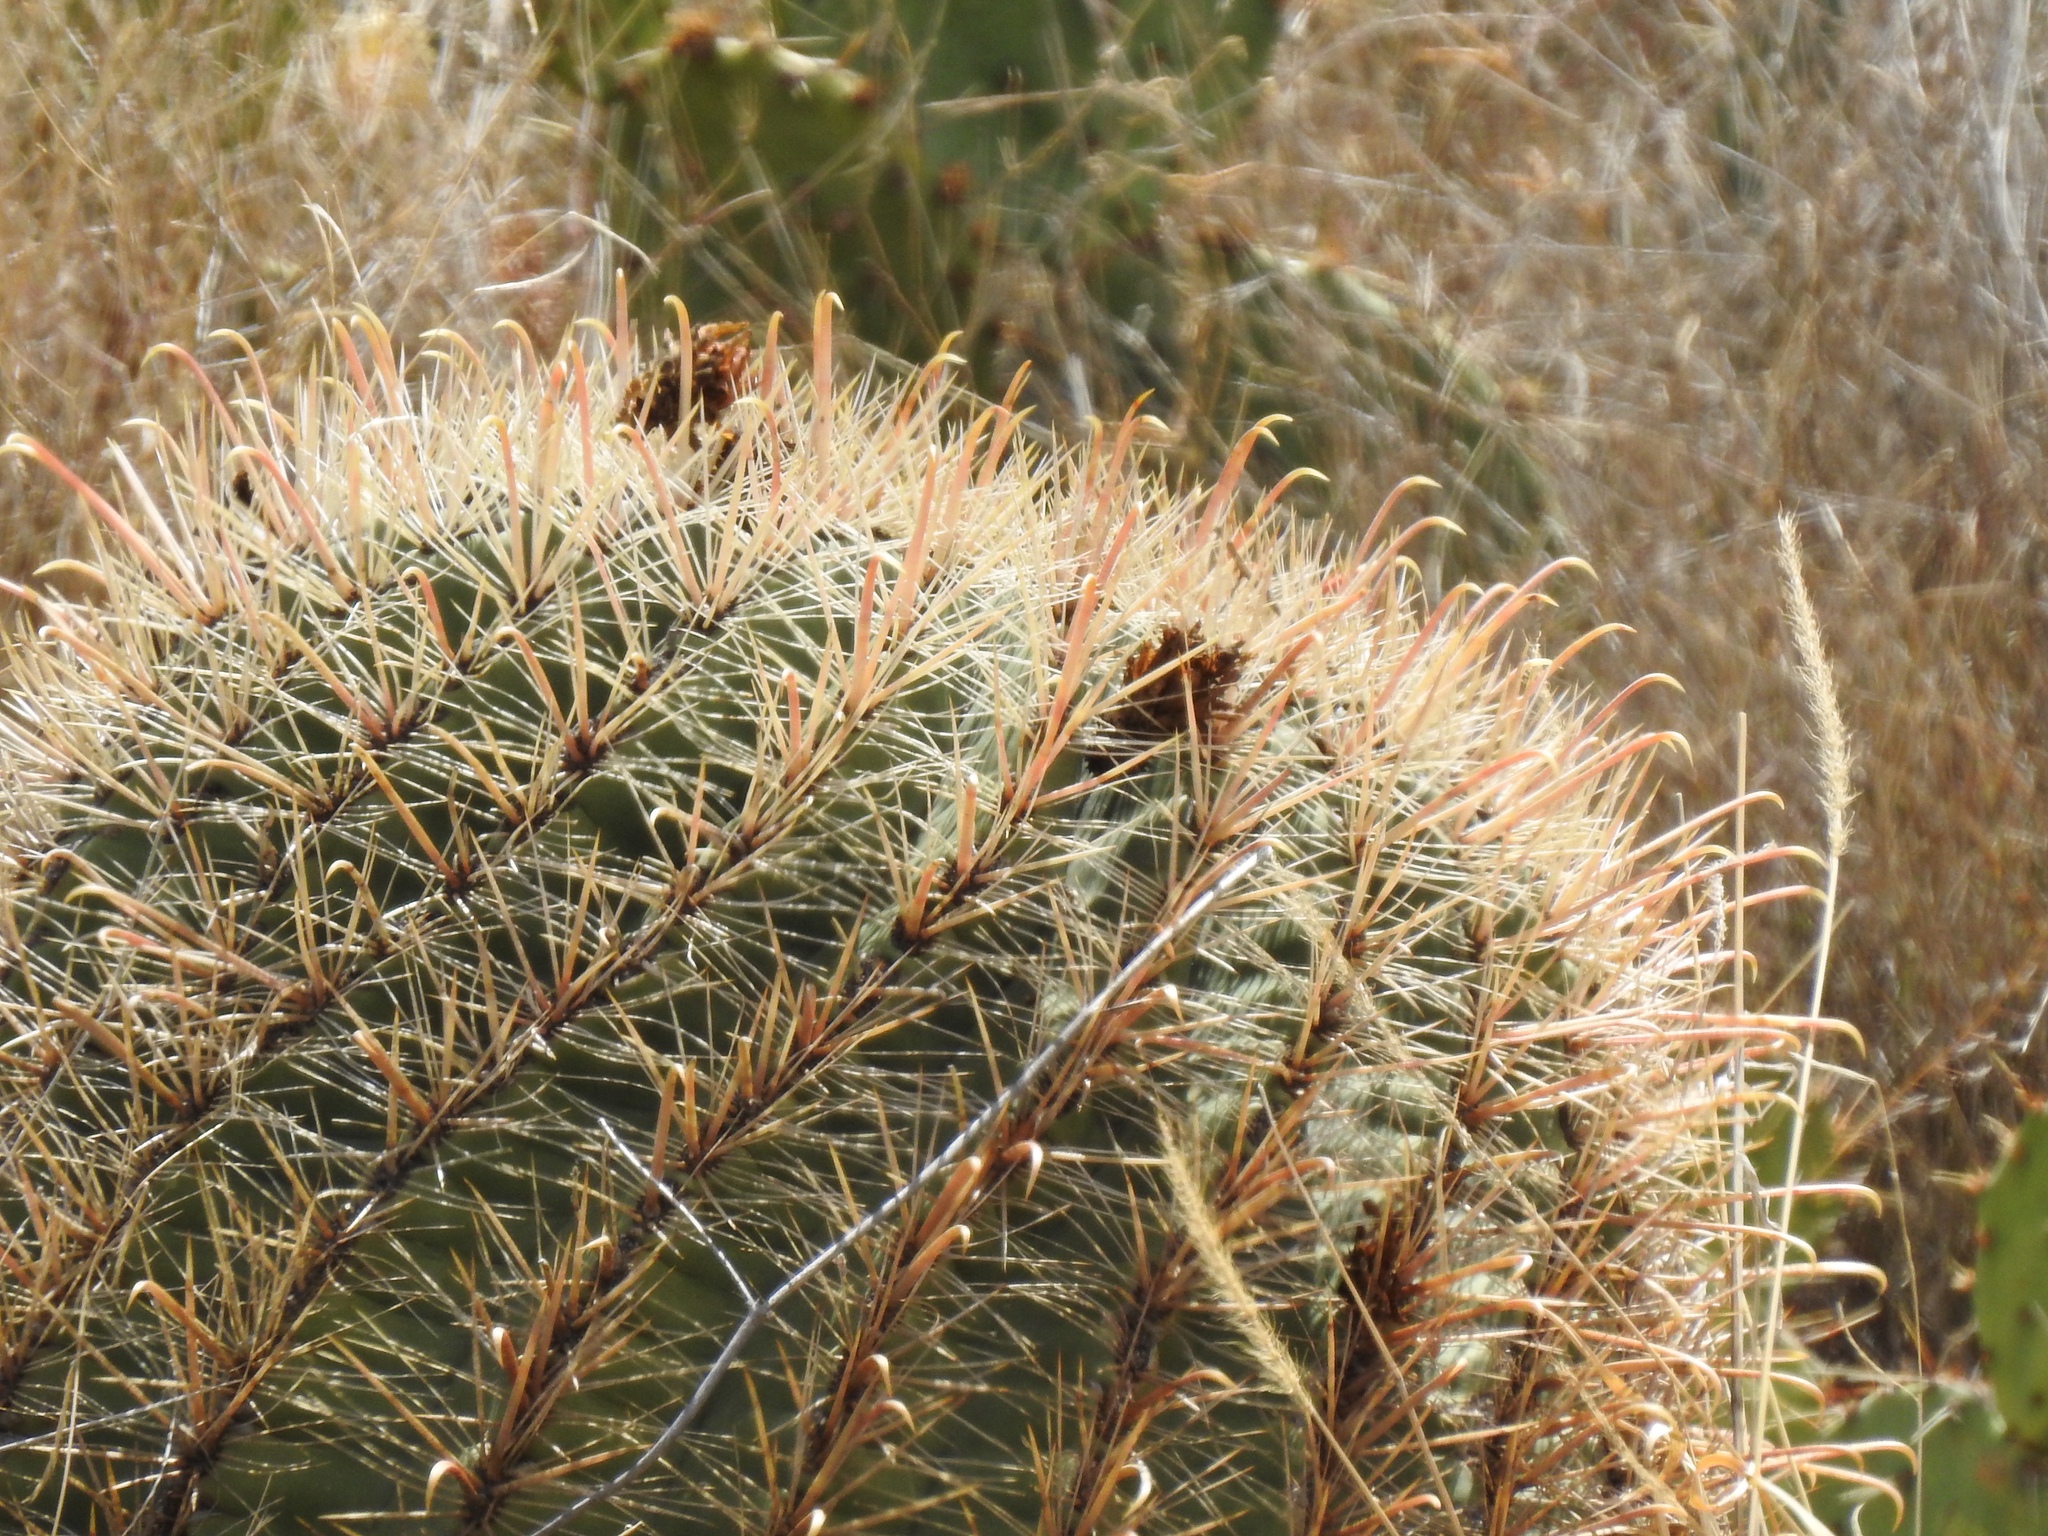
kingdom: Plantae
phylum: Tracheophyta
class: Magnoliopsida
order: Caryophyllales
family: Cactaceae
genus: Ferocactus
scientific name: Ferocactus wislizeni
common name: Candy barrel cactus
